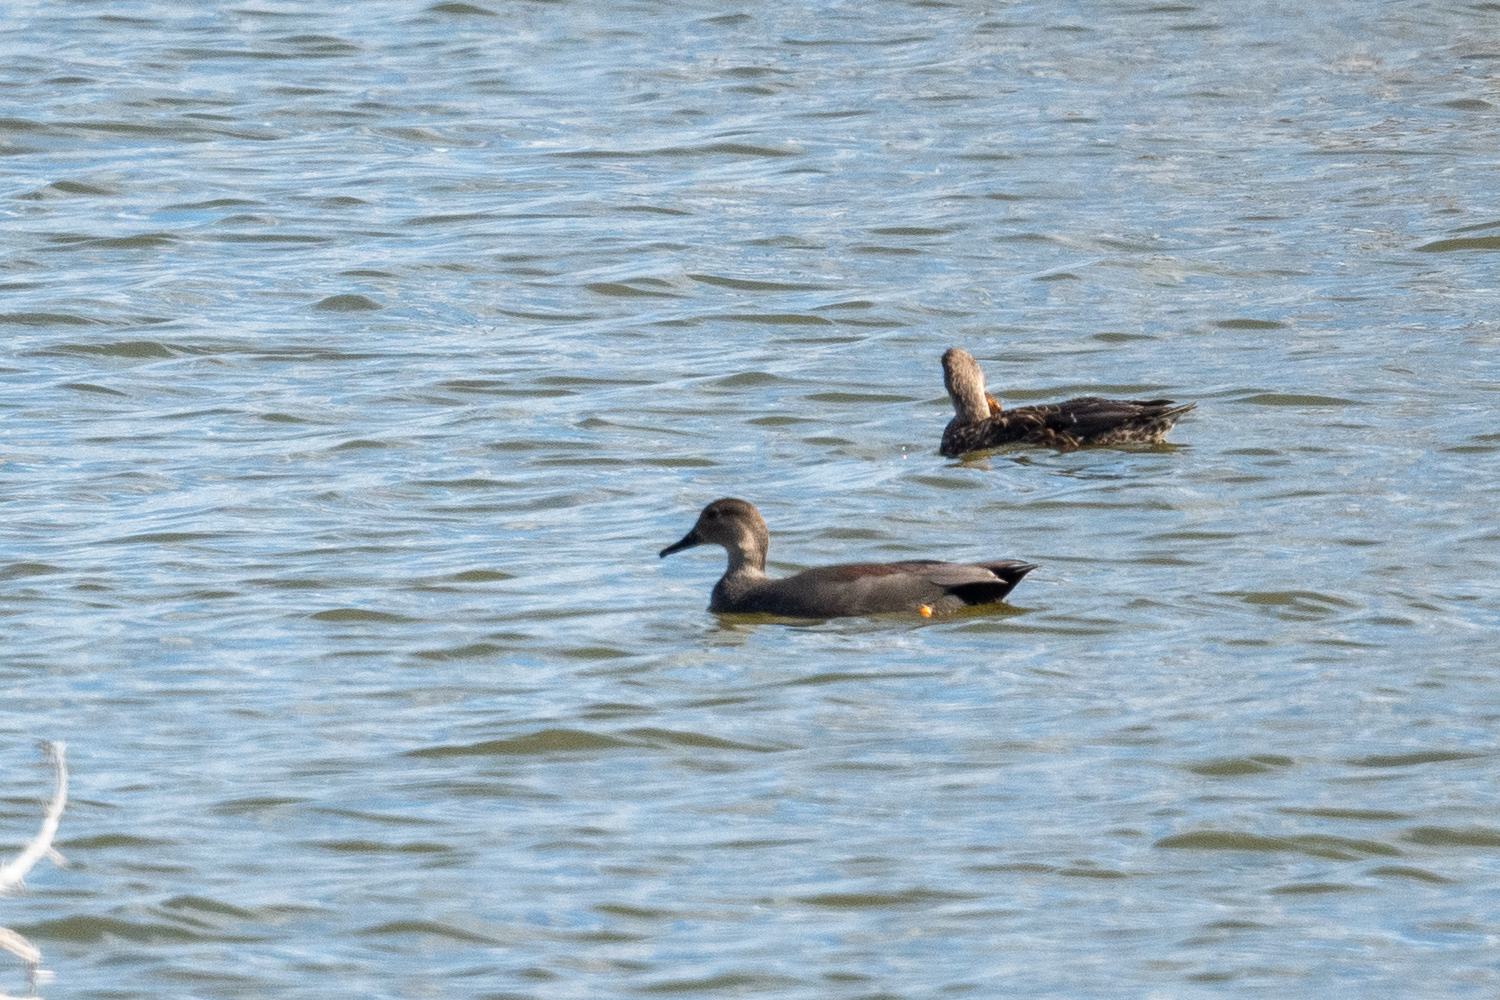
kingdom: Animalia
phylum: Chordata
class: Aves
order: Anseriformes
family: Anatidae
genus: Mareca
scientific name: Mareca strepera
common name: Gadwall
